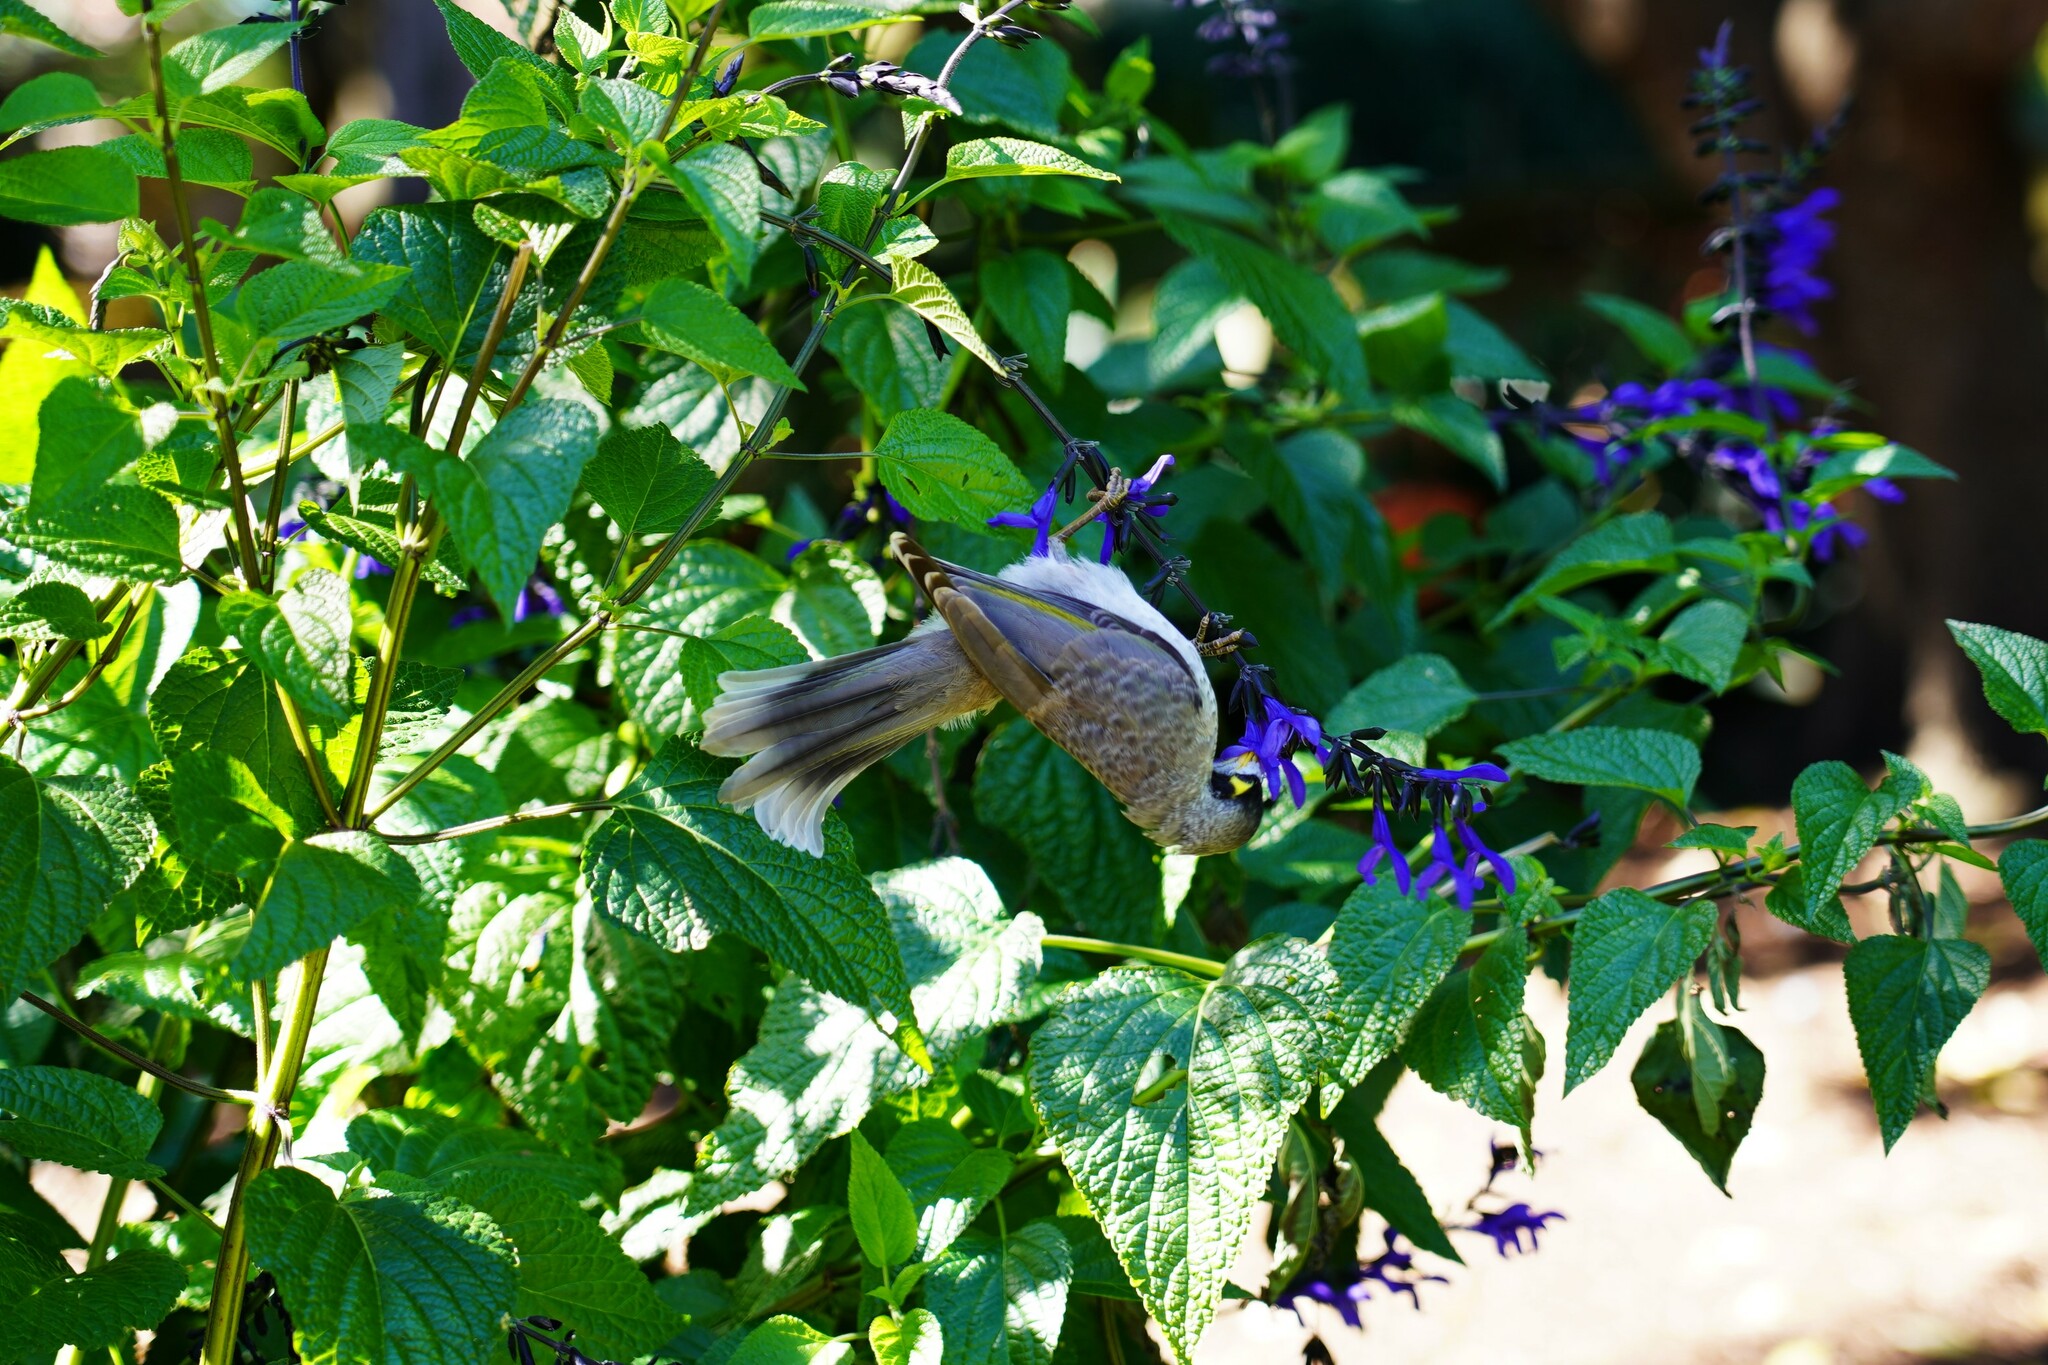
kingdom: Animalia
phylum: Chordata
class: Aves
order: Passeriformes
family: Meliphagidae
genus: Manorina
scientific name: Manorina melanocephala
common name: Noisy miner
